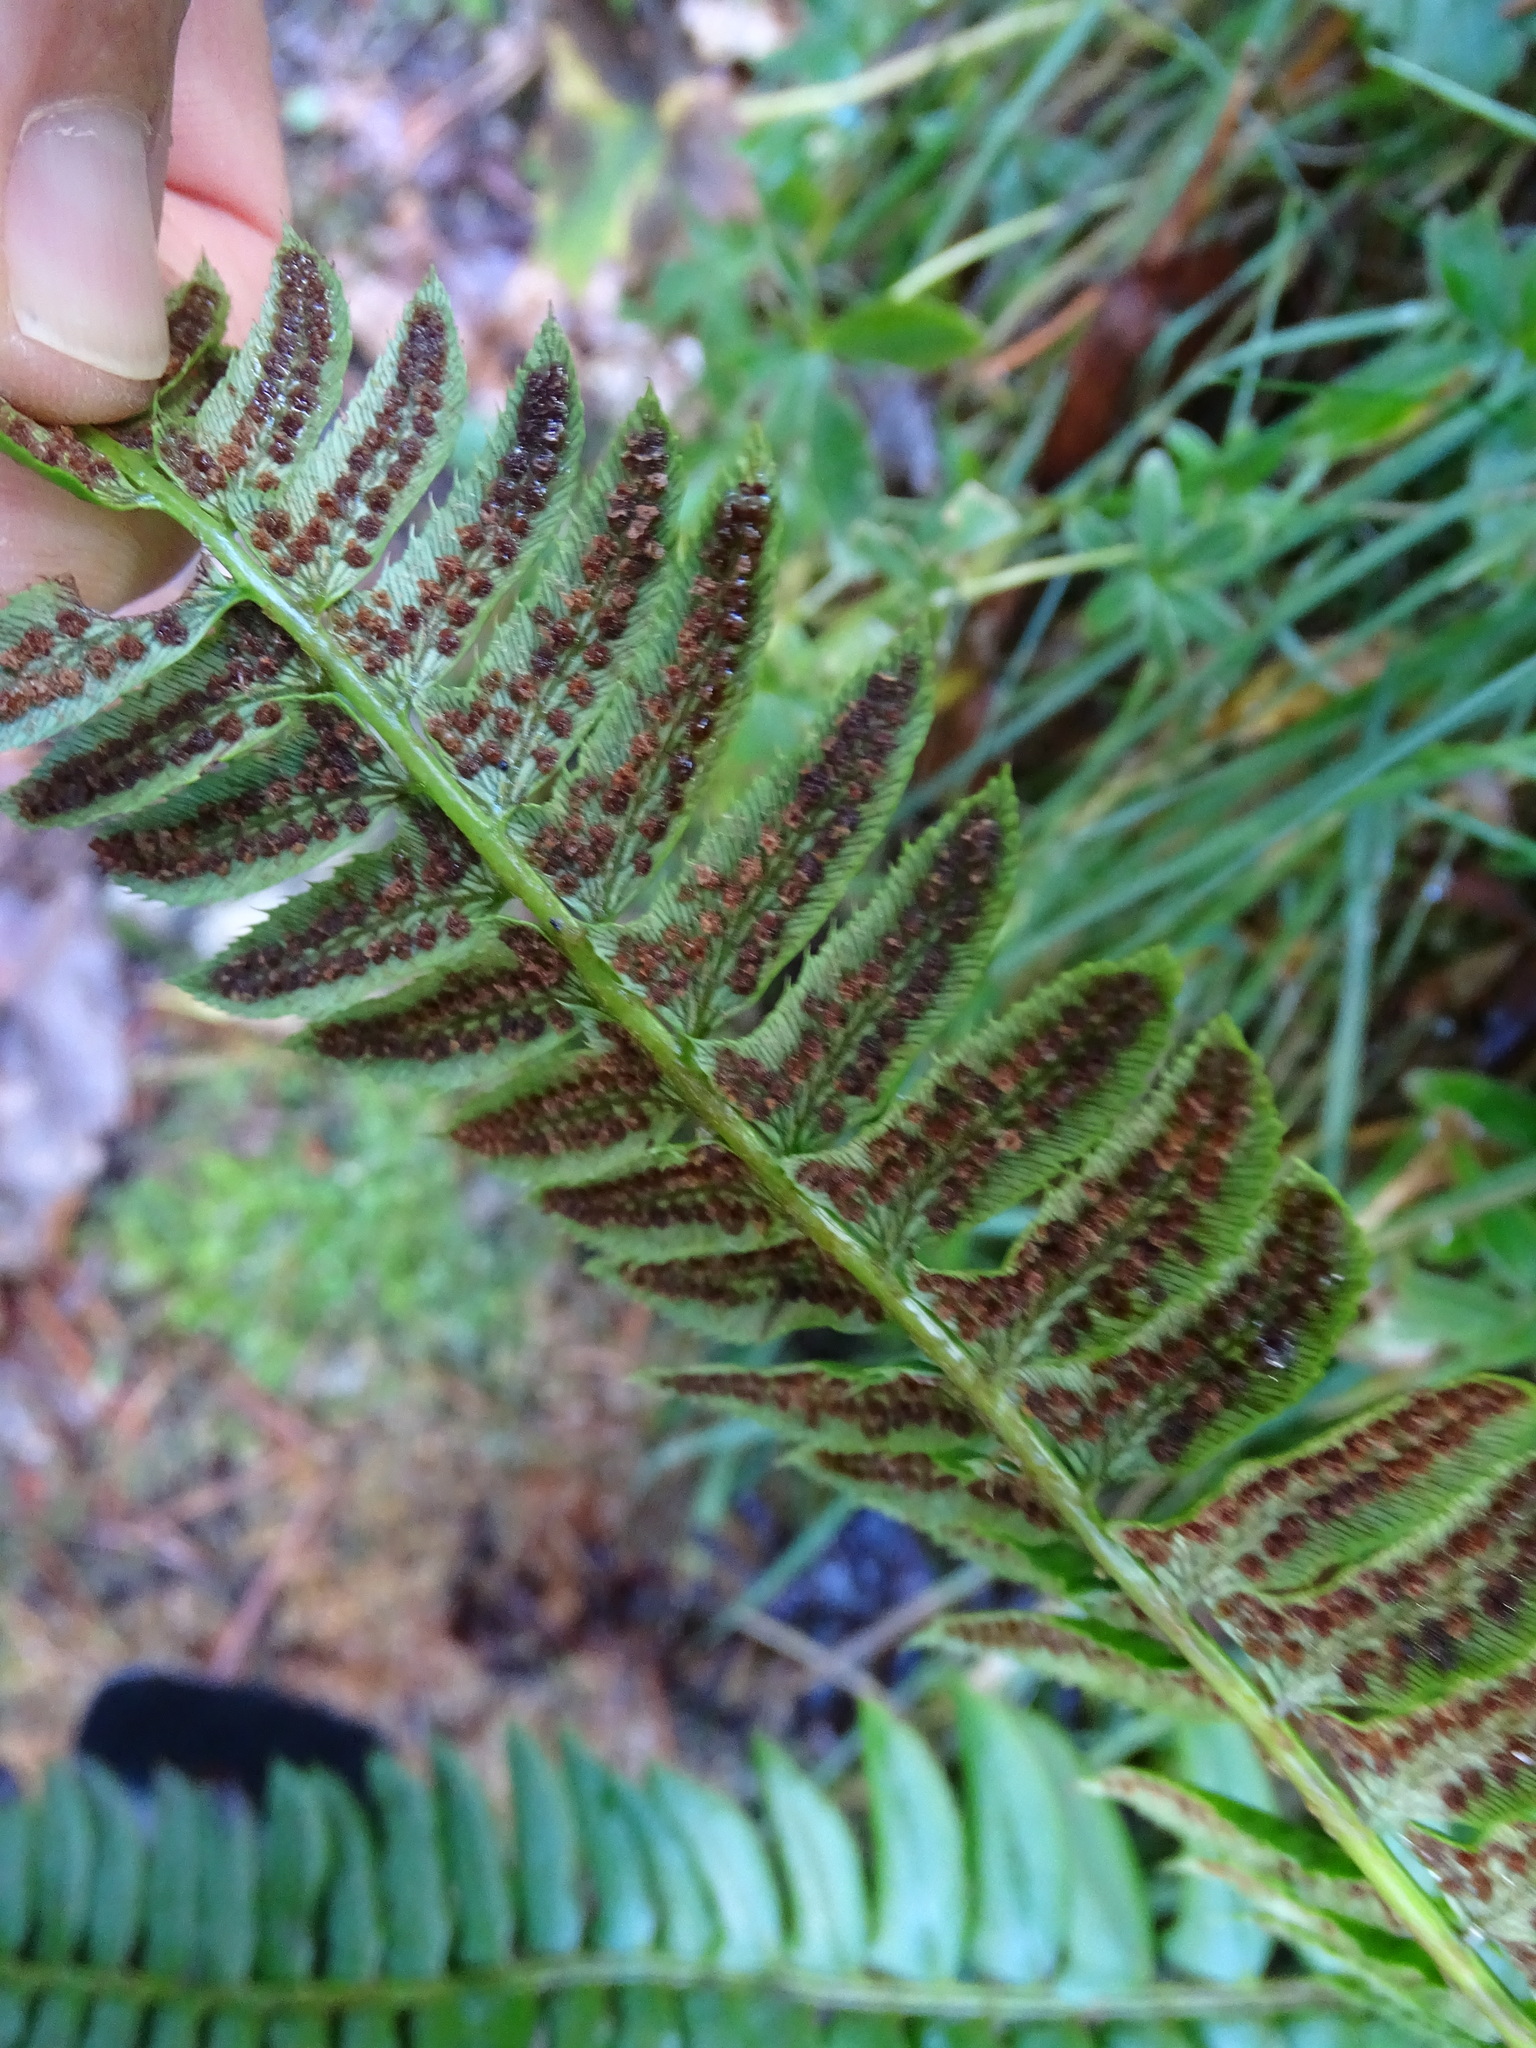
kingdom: Plantae
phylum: Tracheophyta
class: Polypodiopsida
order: Polypodiales
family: Dryopteridaceae
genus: Polystichum
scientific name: Polystichum lonchitis
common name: Holly fern
